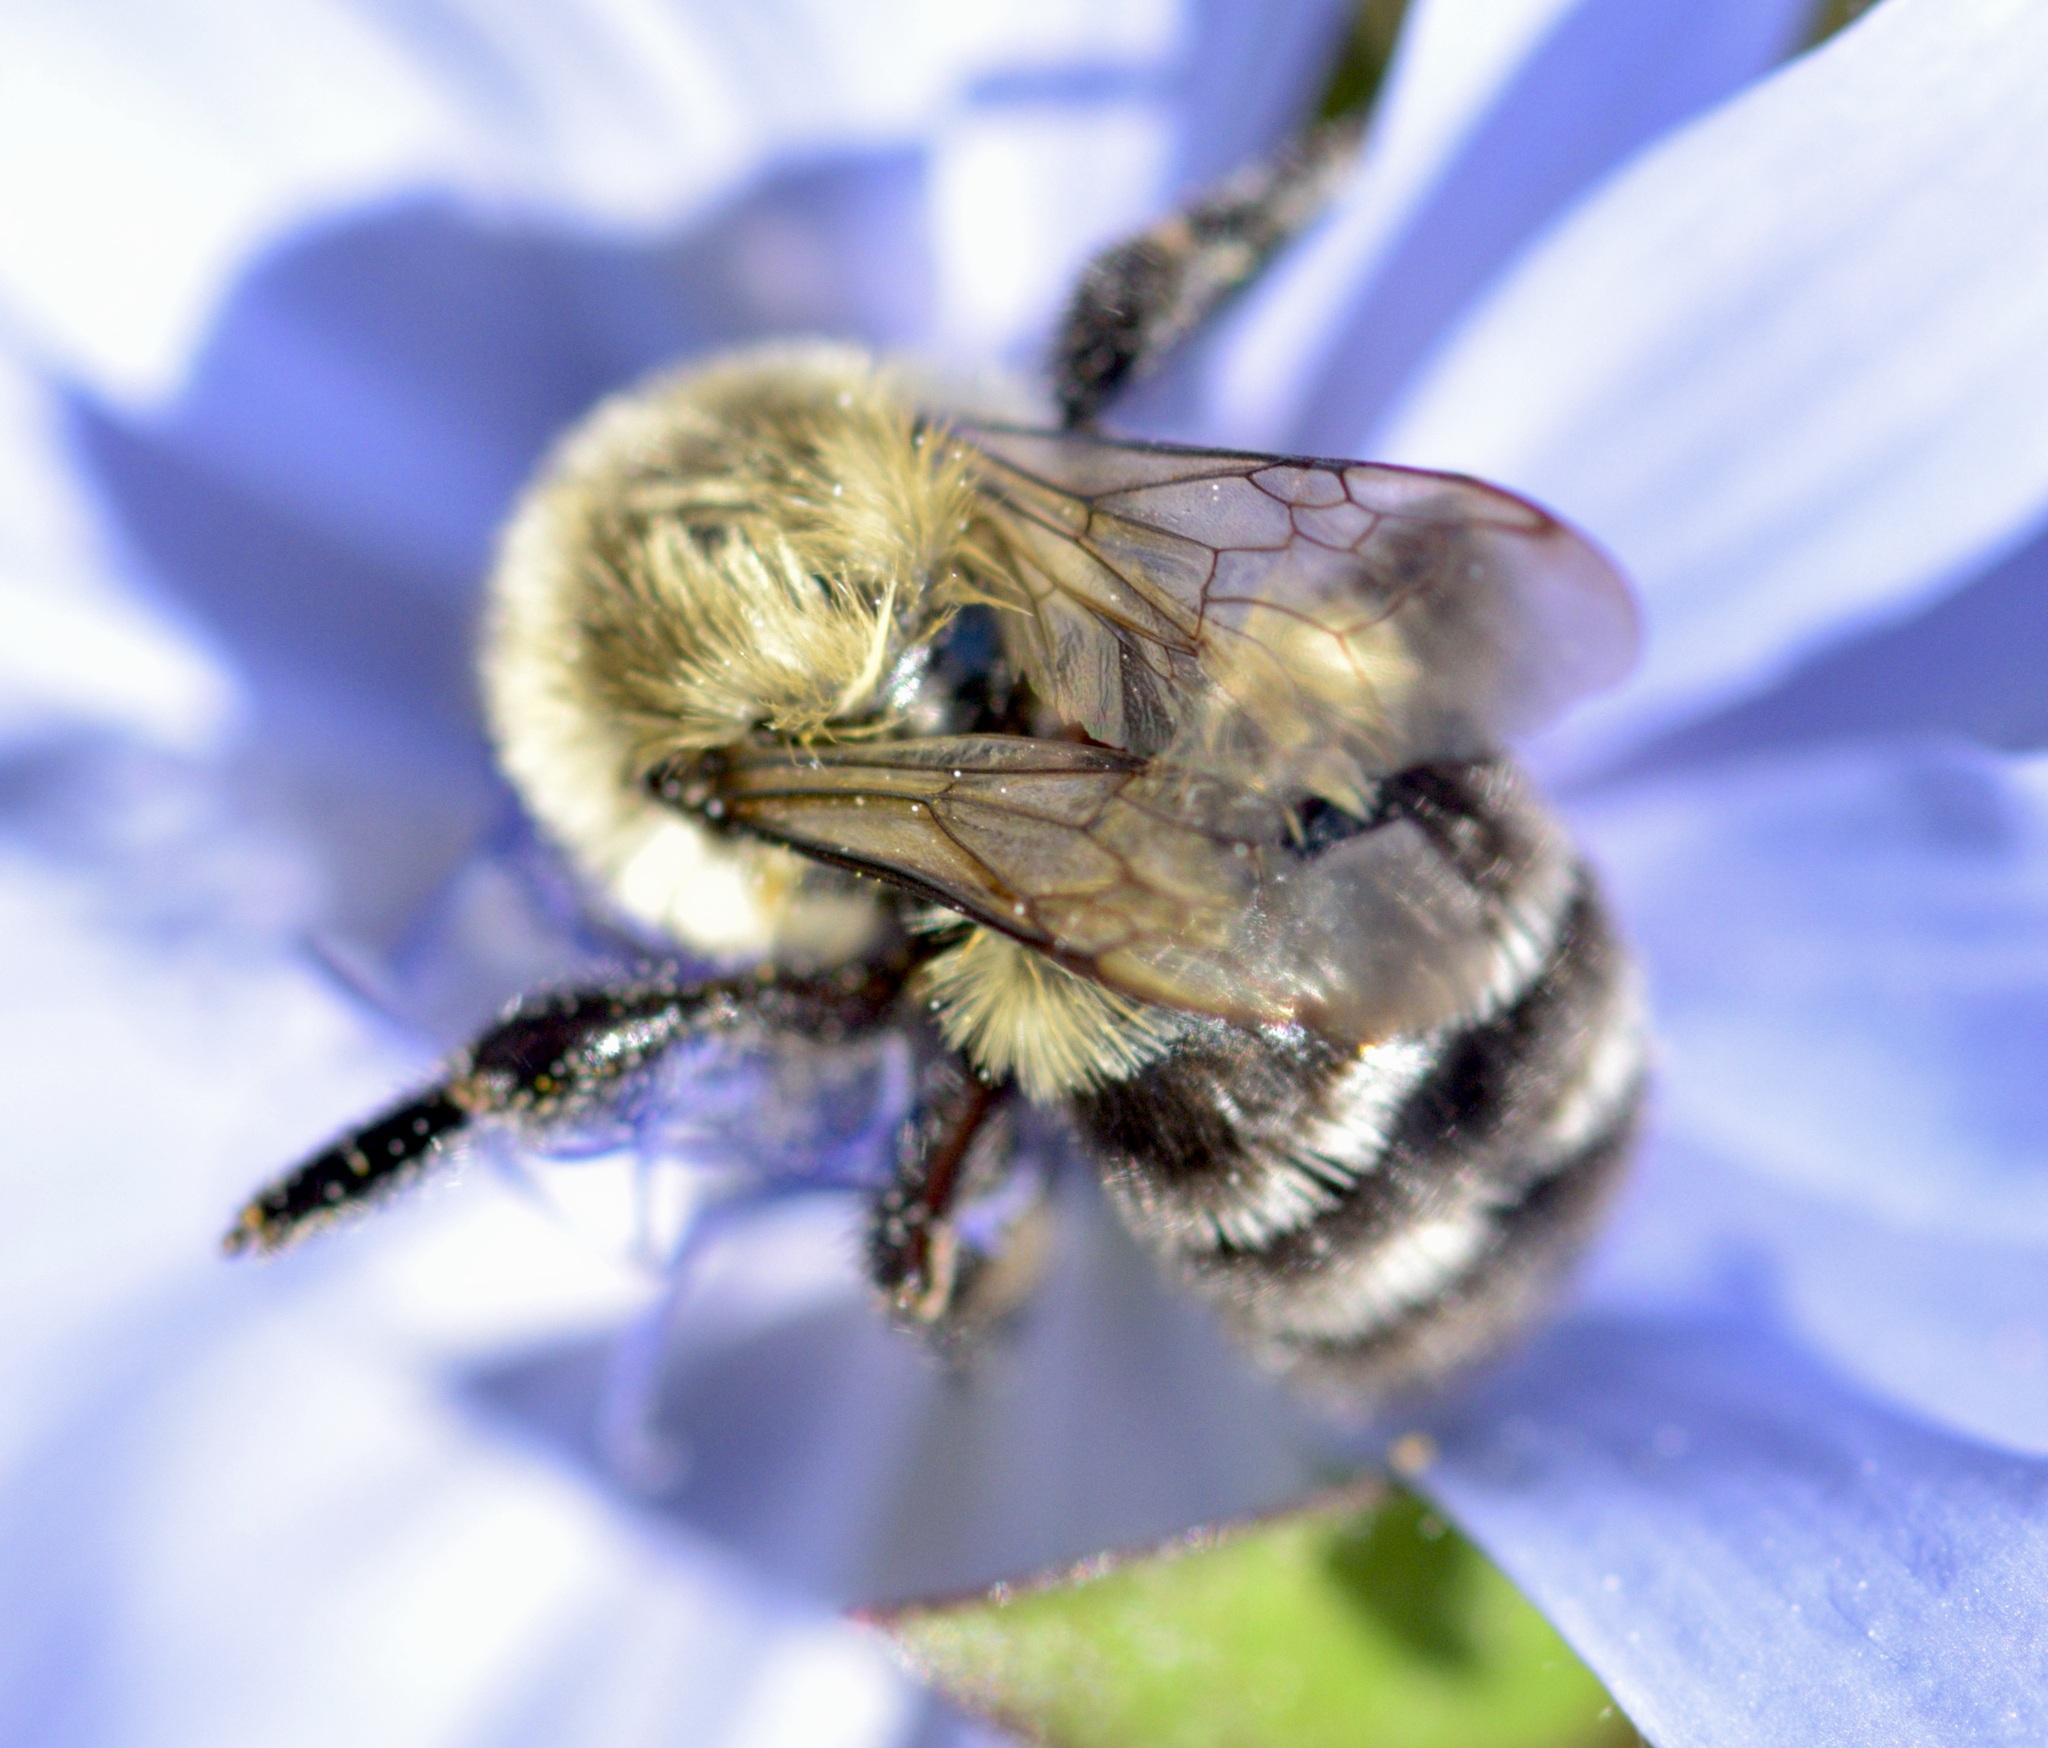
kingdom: Animalia
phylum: Arthropoda
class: Insecta
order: Hymenoptera
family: Apidae
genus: Bombus
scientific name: Bombus impatiens
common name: Common eastern bumble bee
